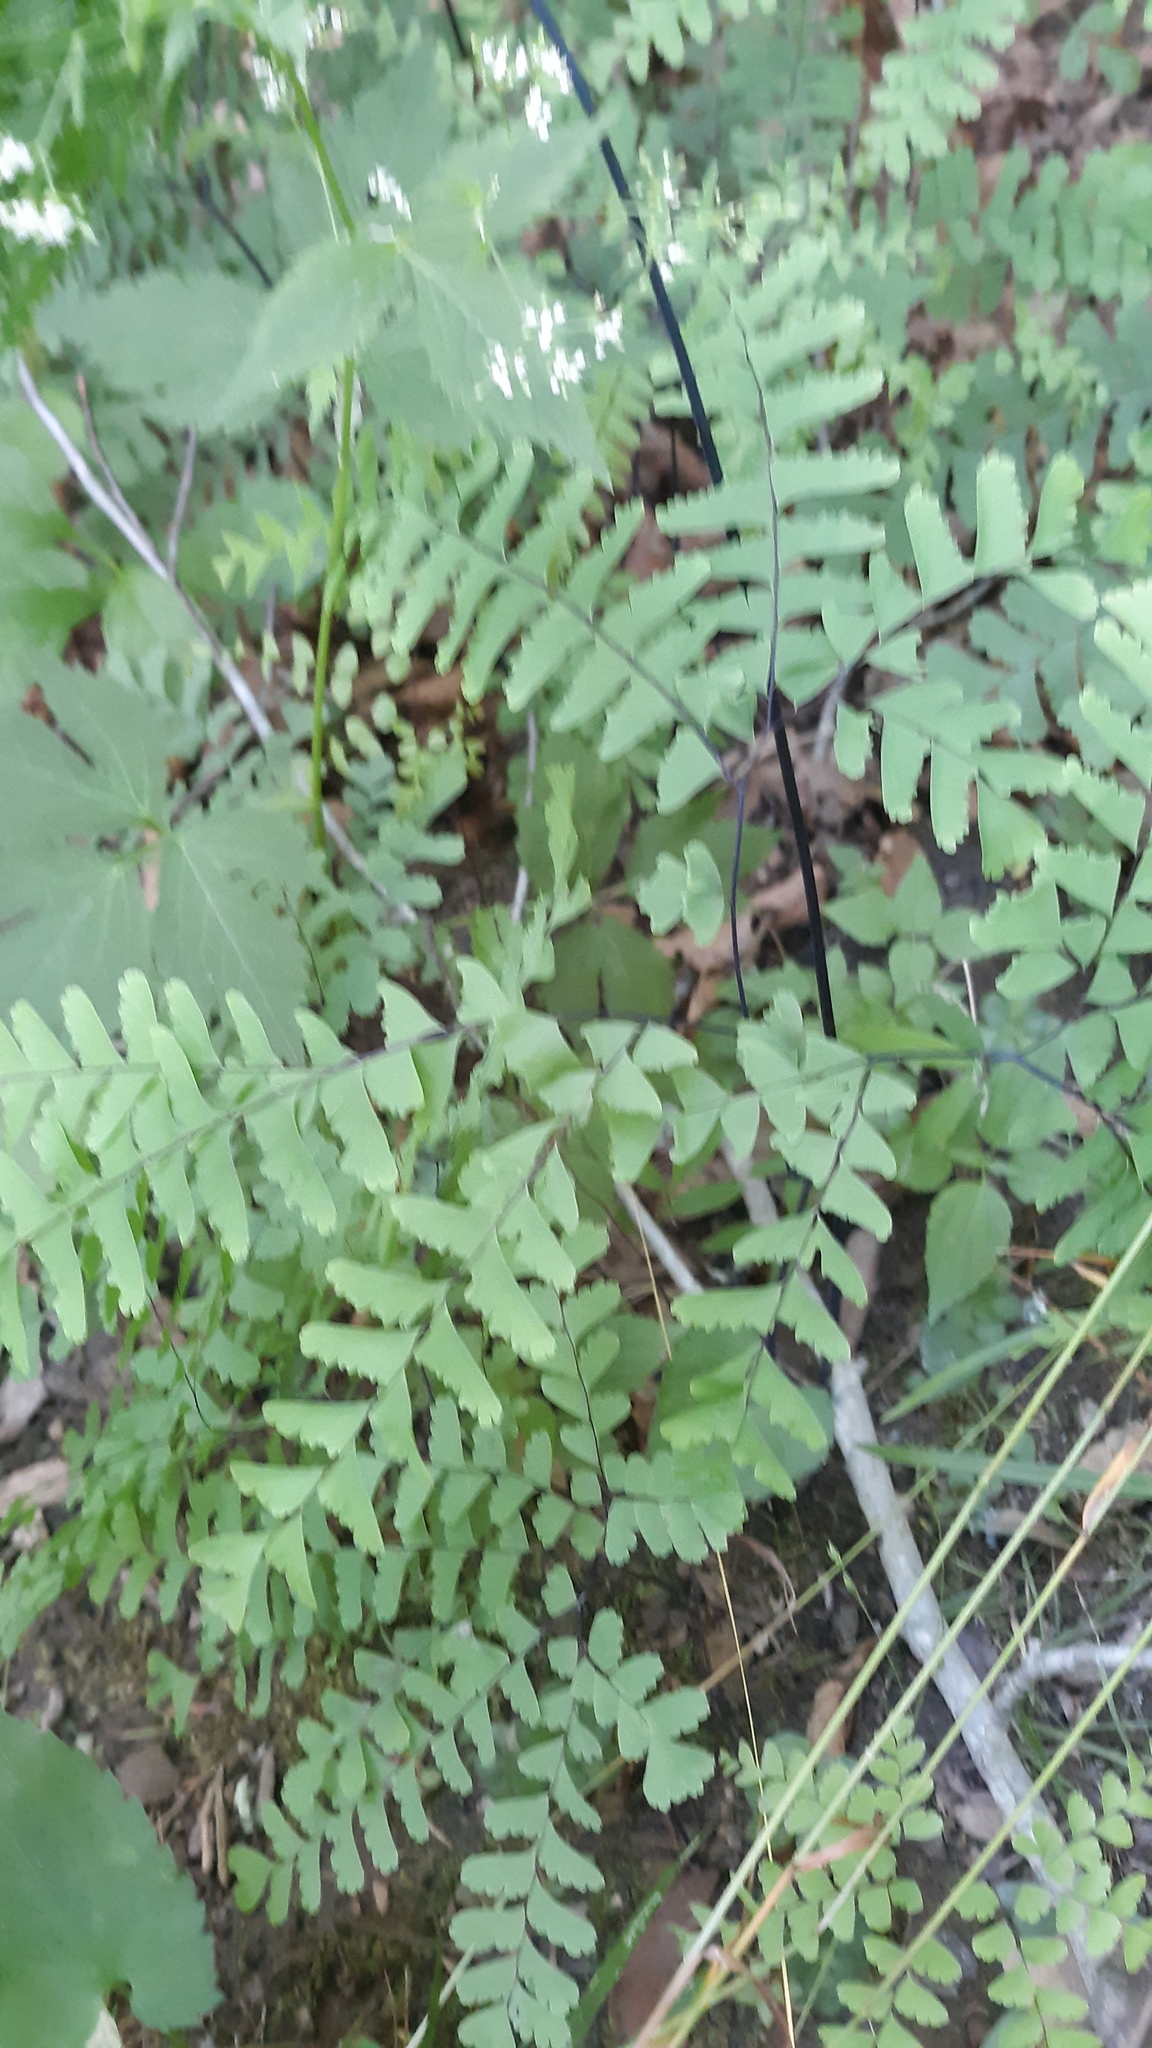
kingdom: Plantae
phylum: Tracheophyta
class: Polypodiopsida
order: Polypodiales
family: Pteridaceae
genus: Adiantum
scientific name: Adiantum pedatum
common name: Five-finger fern
